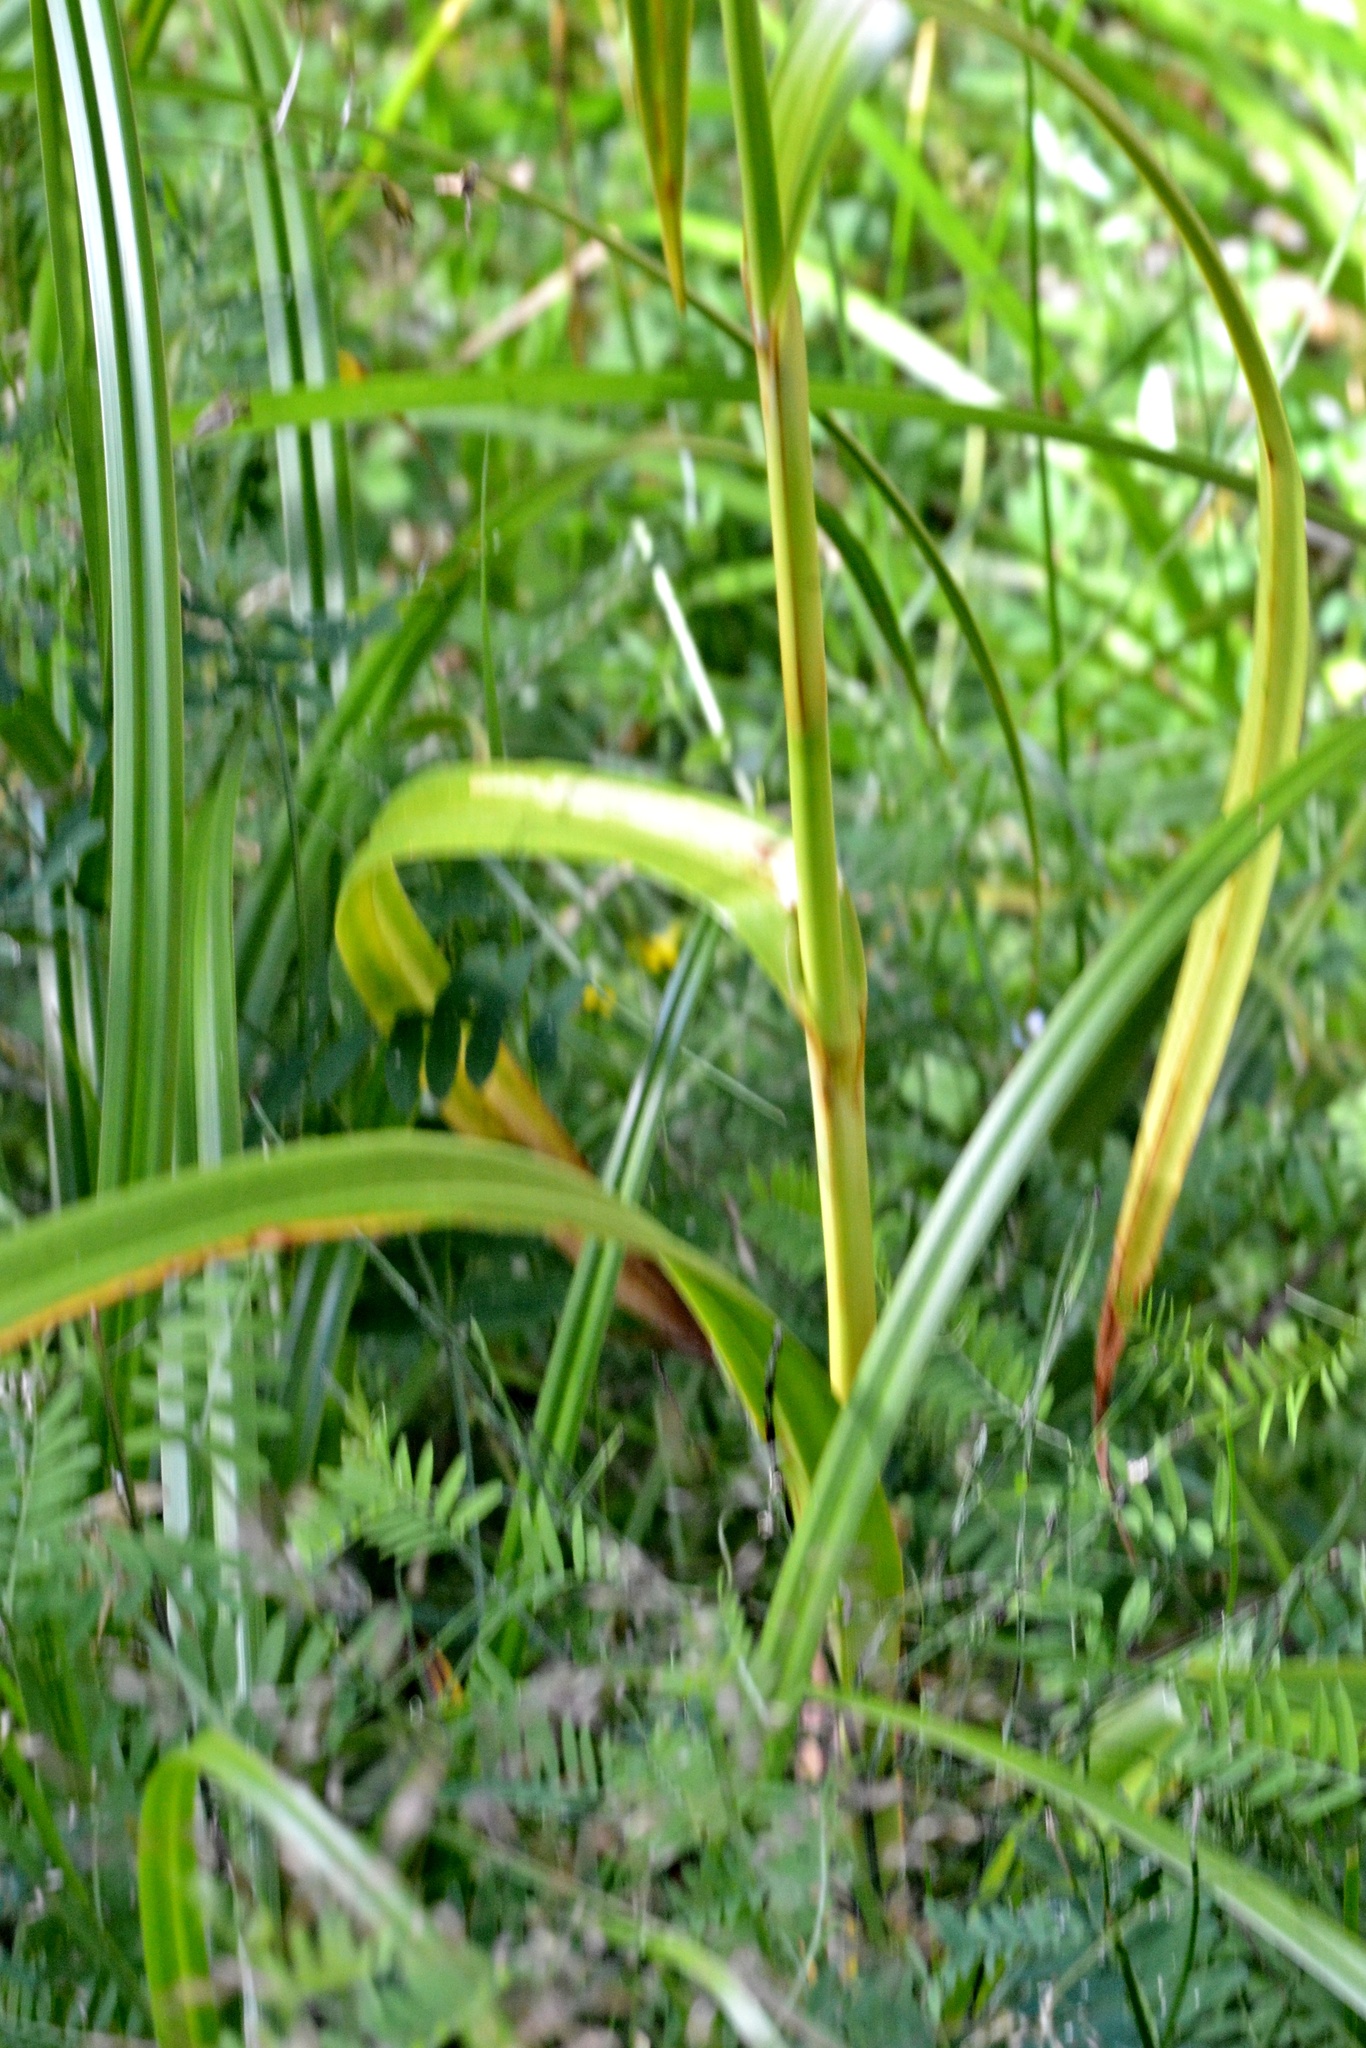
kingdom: Plantae
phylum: Tracheophyta
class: Liliopsida
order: Poales
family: Cyperaceae
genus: Scirpus
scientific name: Scirpus sylvaticus
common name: Wood club-rush
